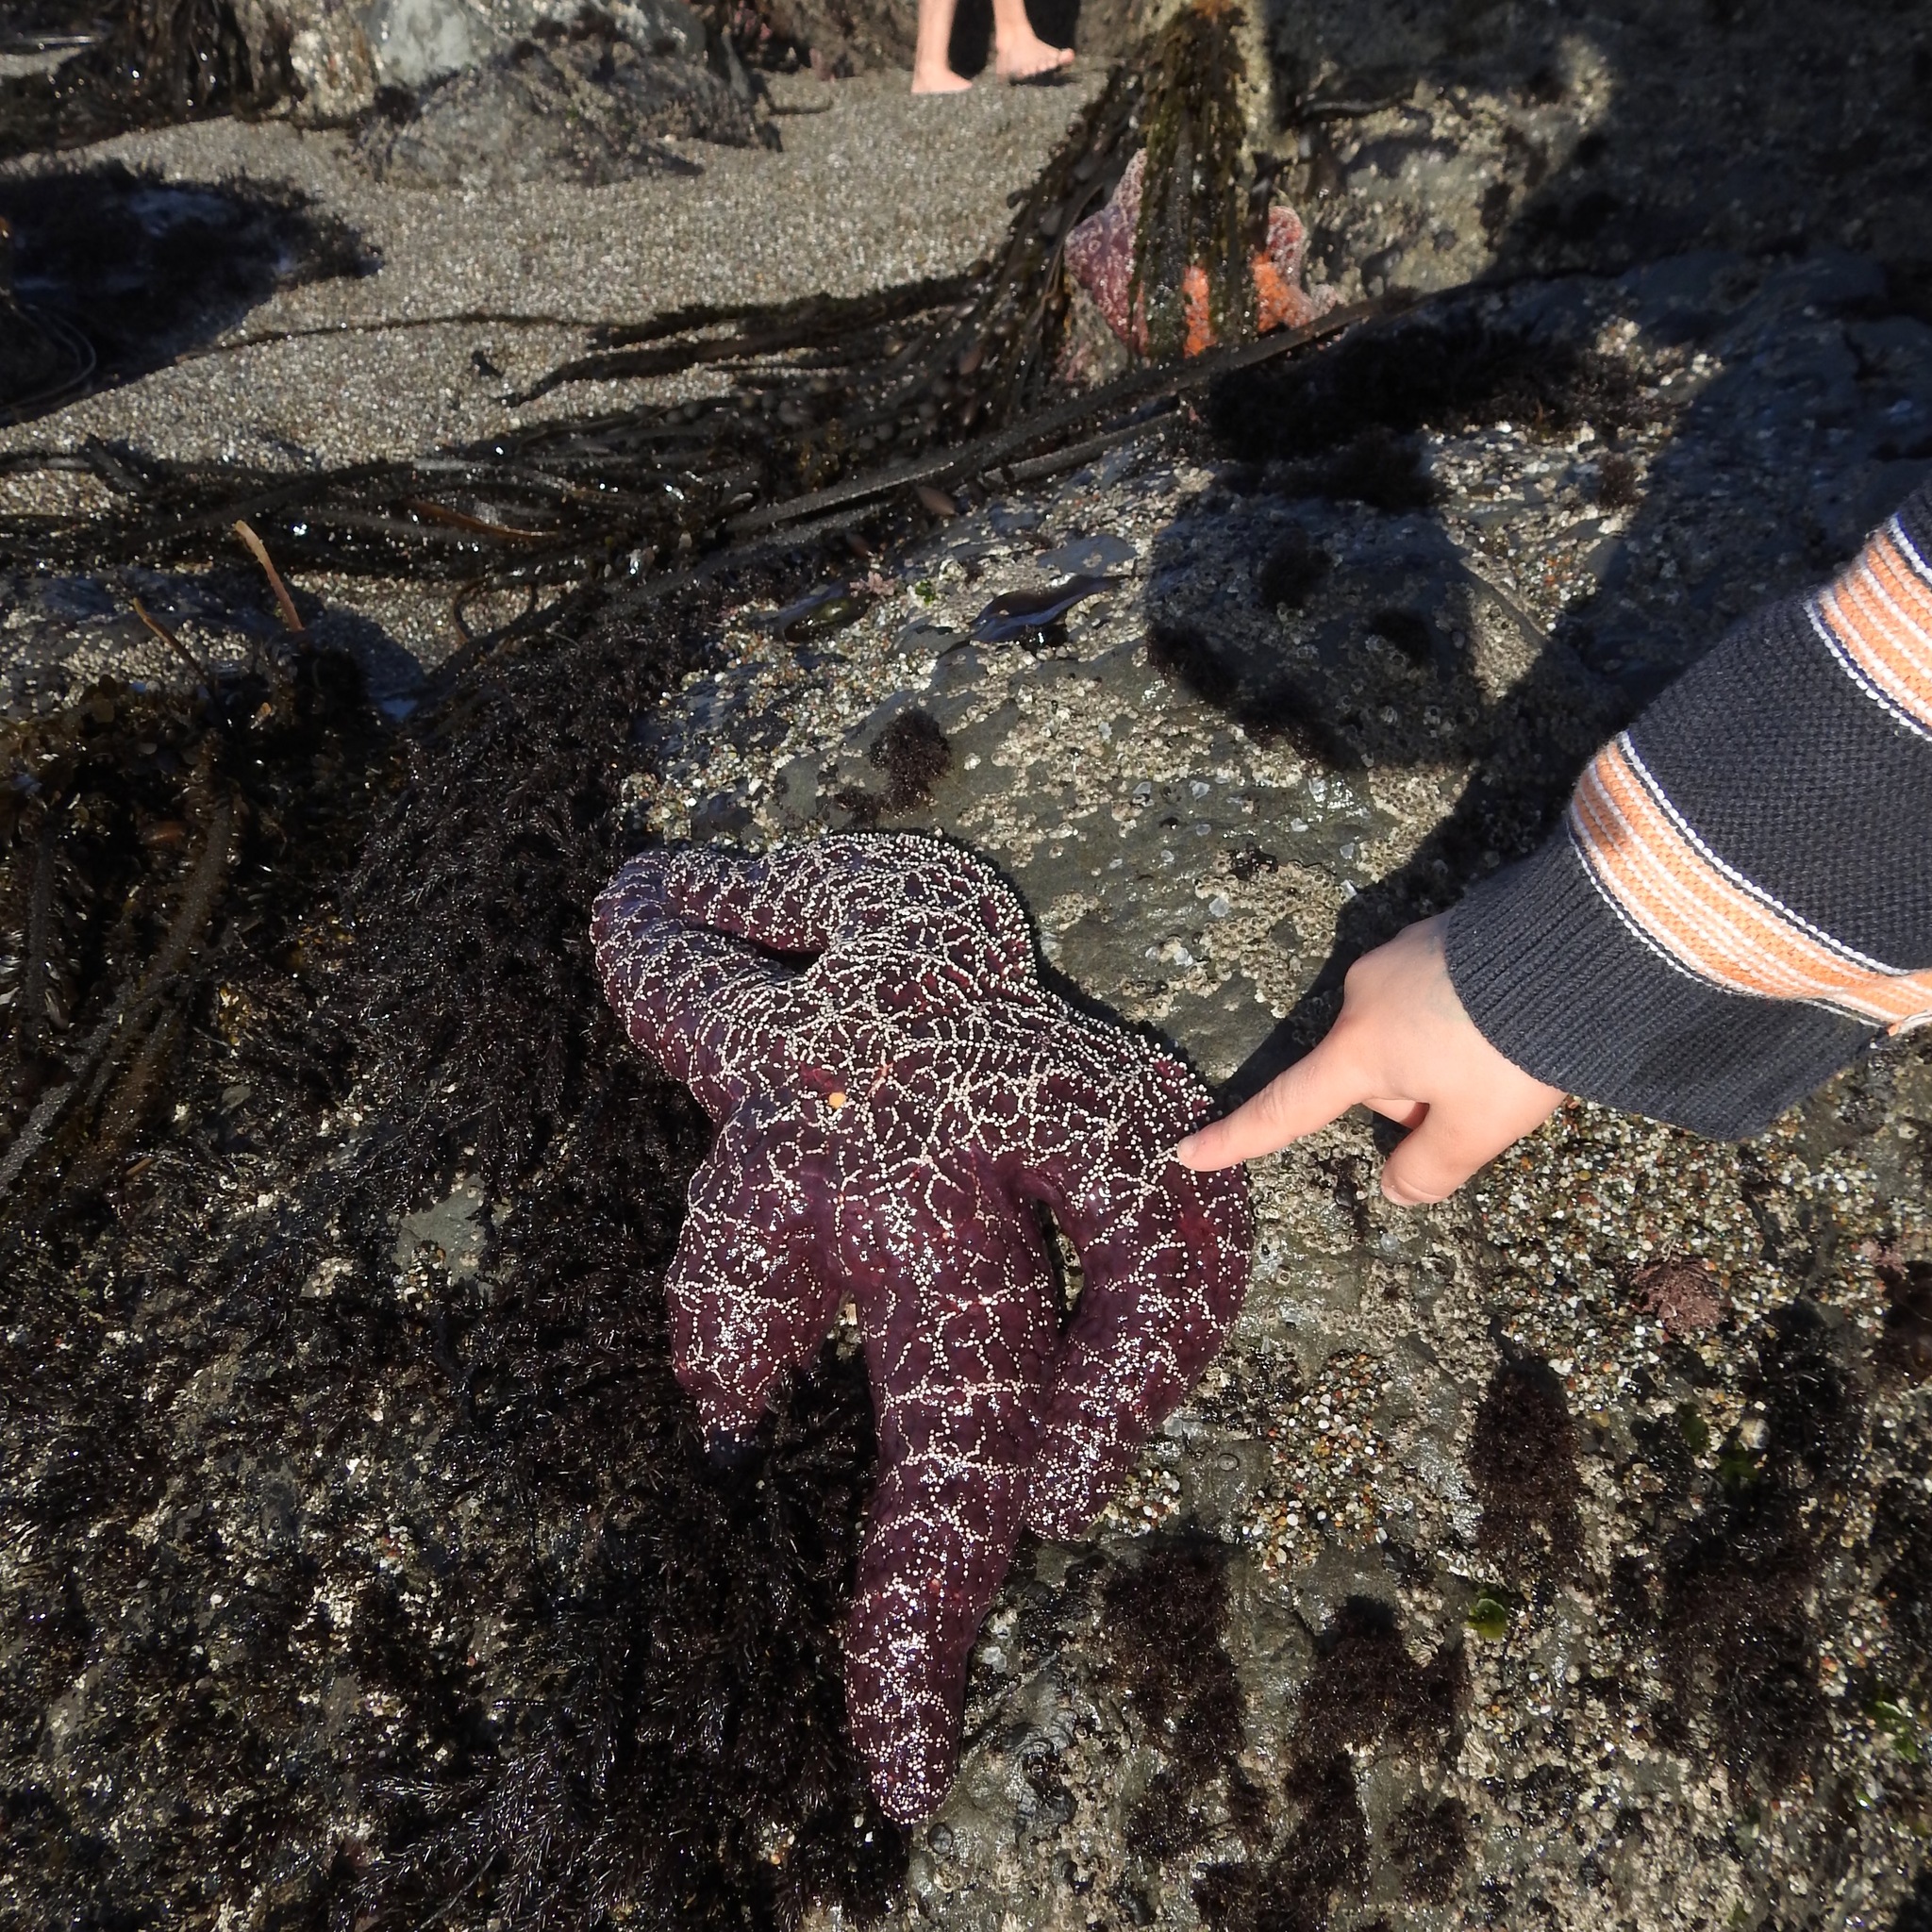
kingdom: Animalia
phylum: Echinodermata
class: Asteroidea
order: Forcipulatida
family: Asteriidae
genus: Pisaster
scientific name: Pisaster ochraceus
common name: Ochre stars
